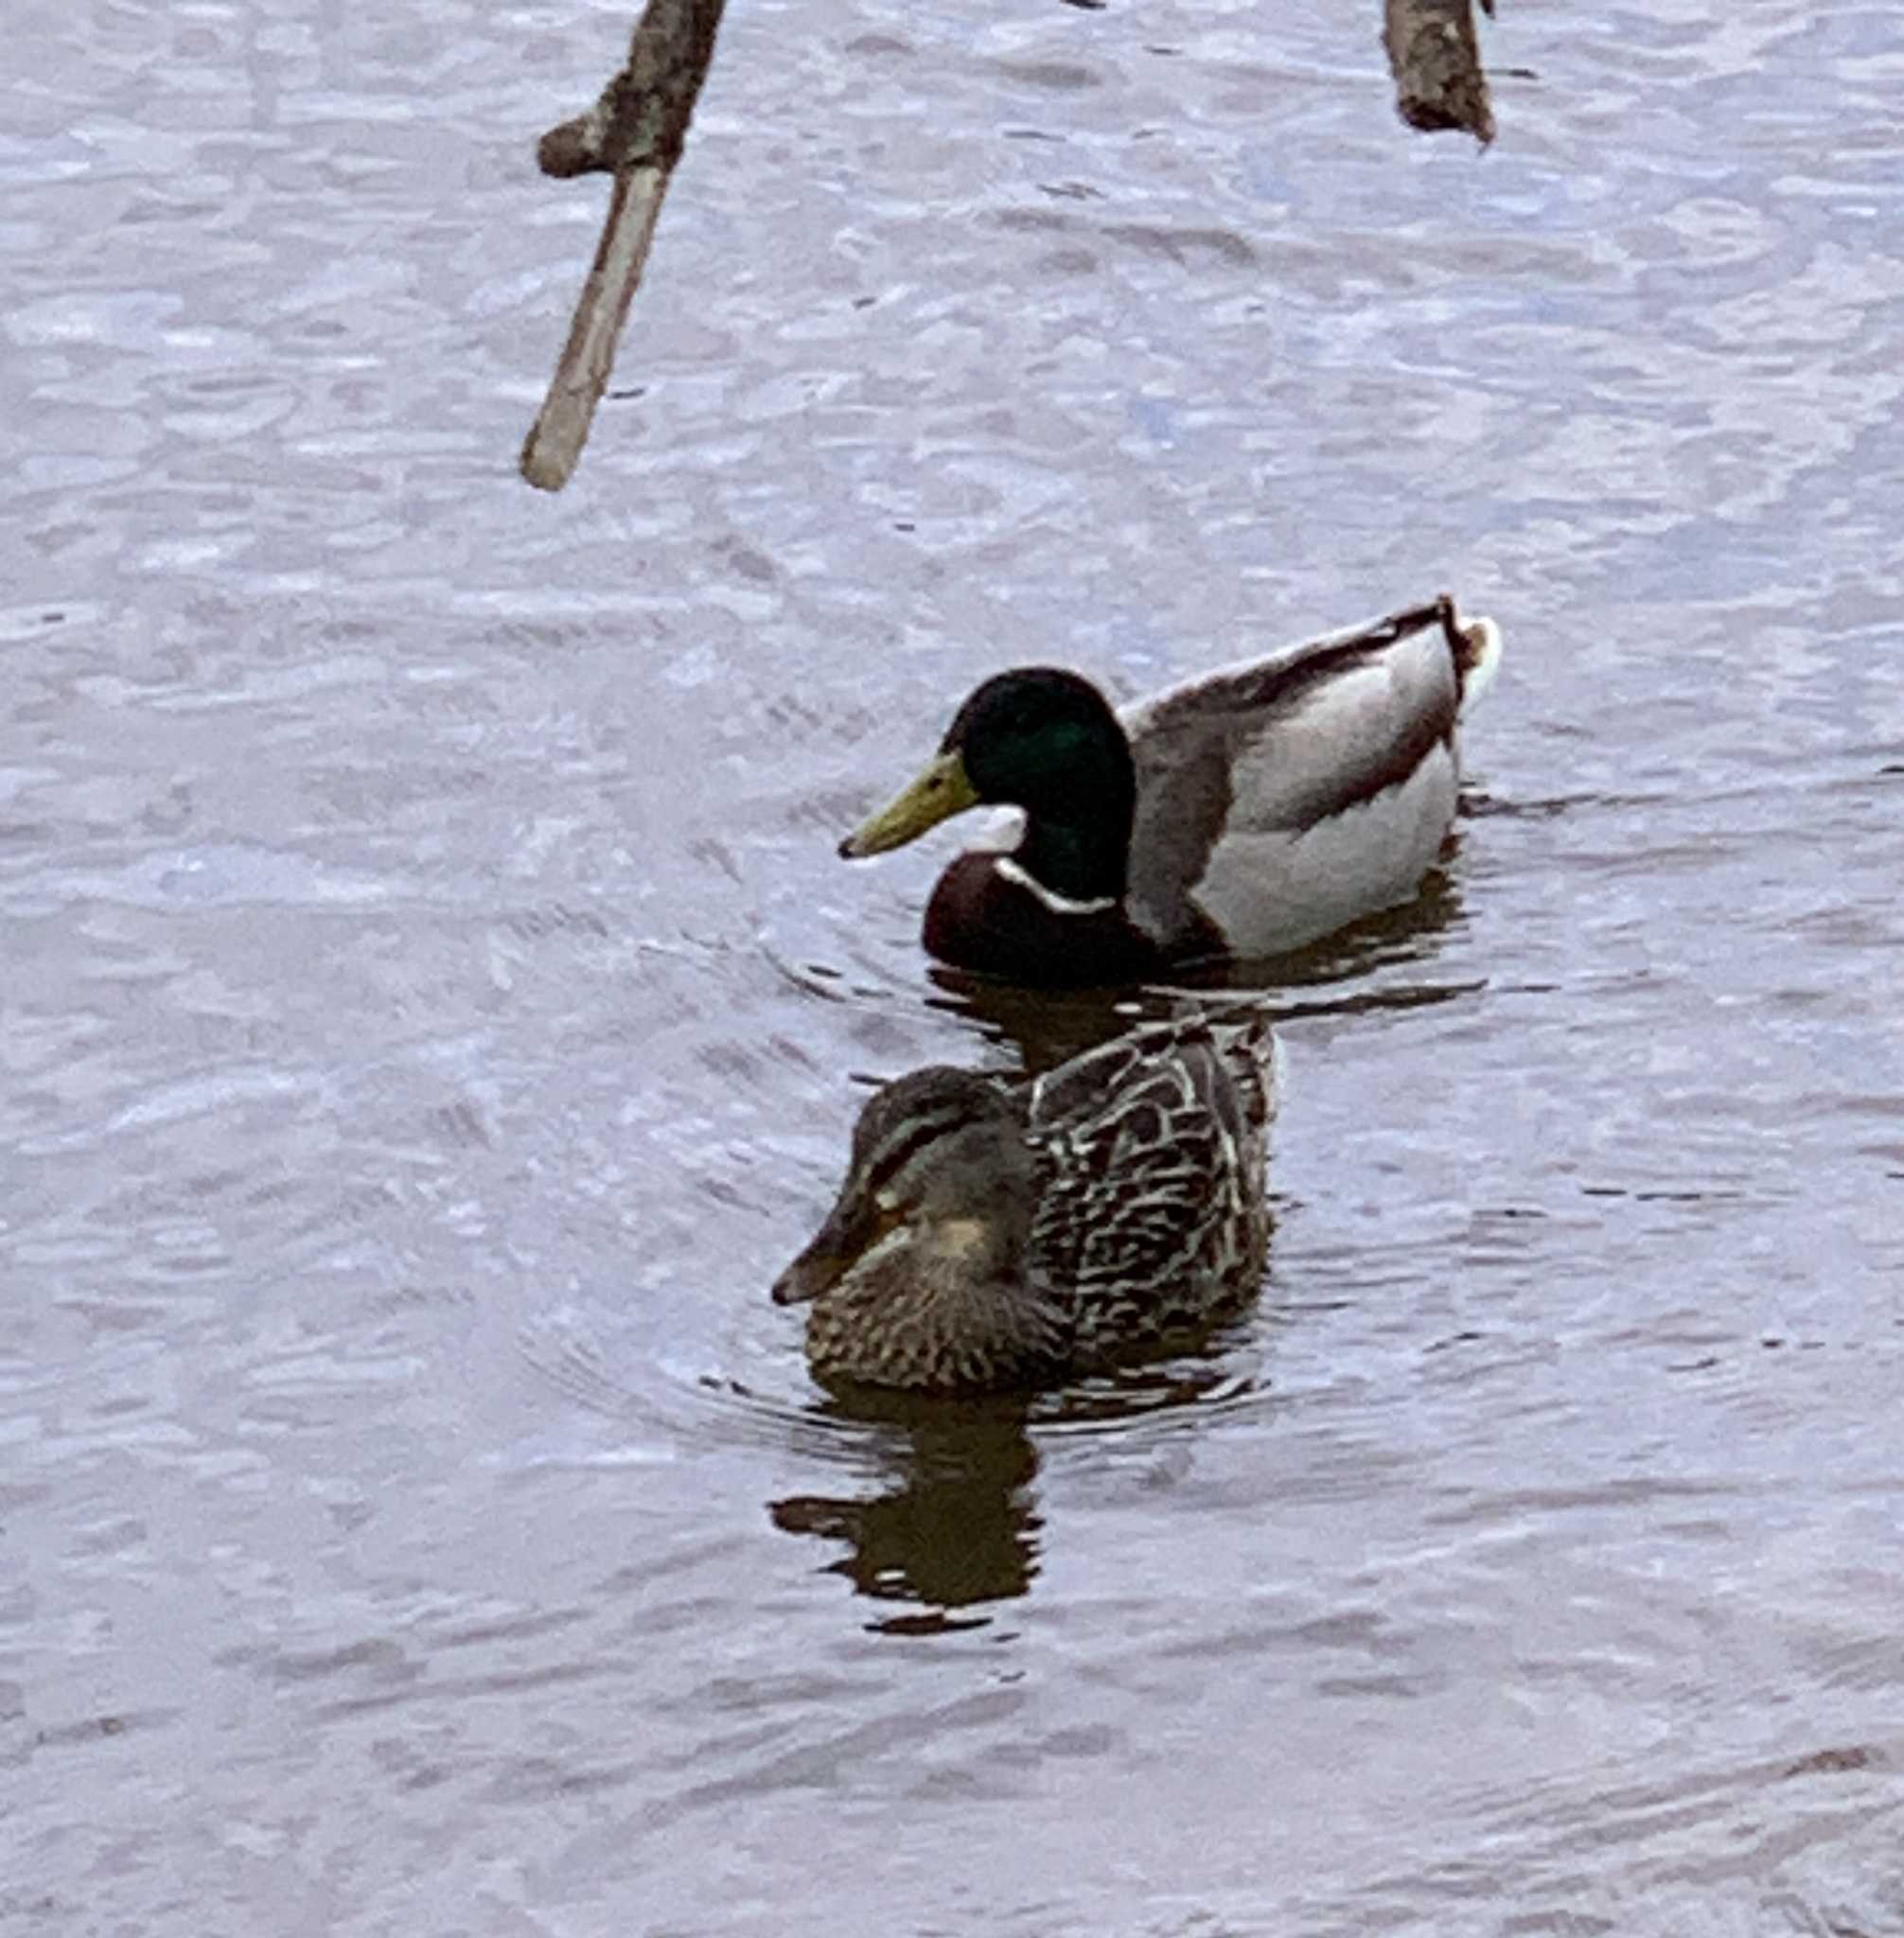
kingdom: Animalia
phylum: Chordata
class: Aves
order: Anseriformes
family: Anatidae
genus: Anas
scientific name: Anas platyrhynchos
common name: Mallard
